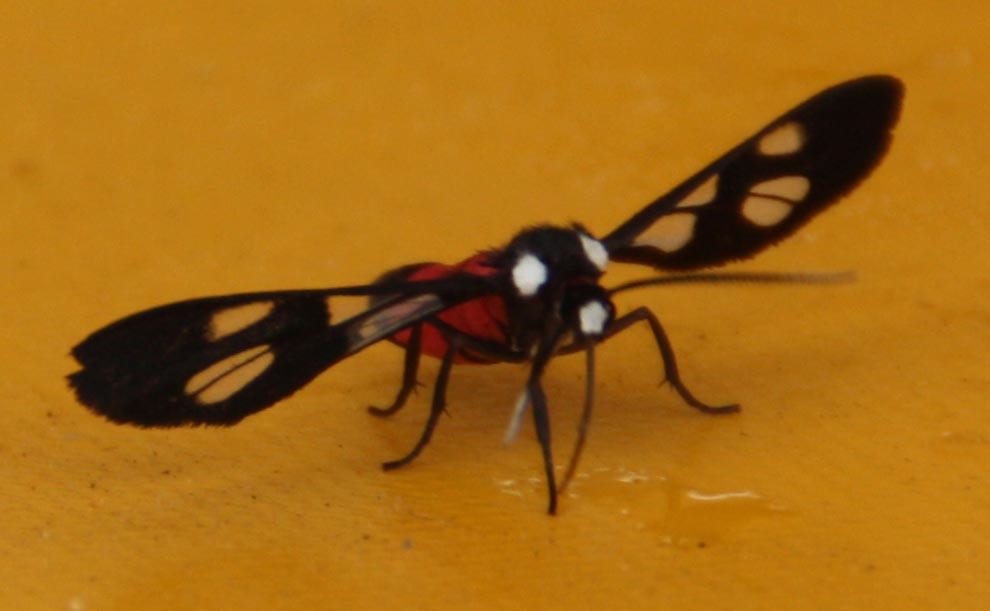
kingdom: Animalia
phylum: Arthropoda
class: Insecta
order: Lepidoptera
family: Erebidae
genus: Amata
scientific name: Amata leopoldi
